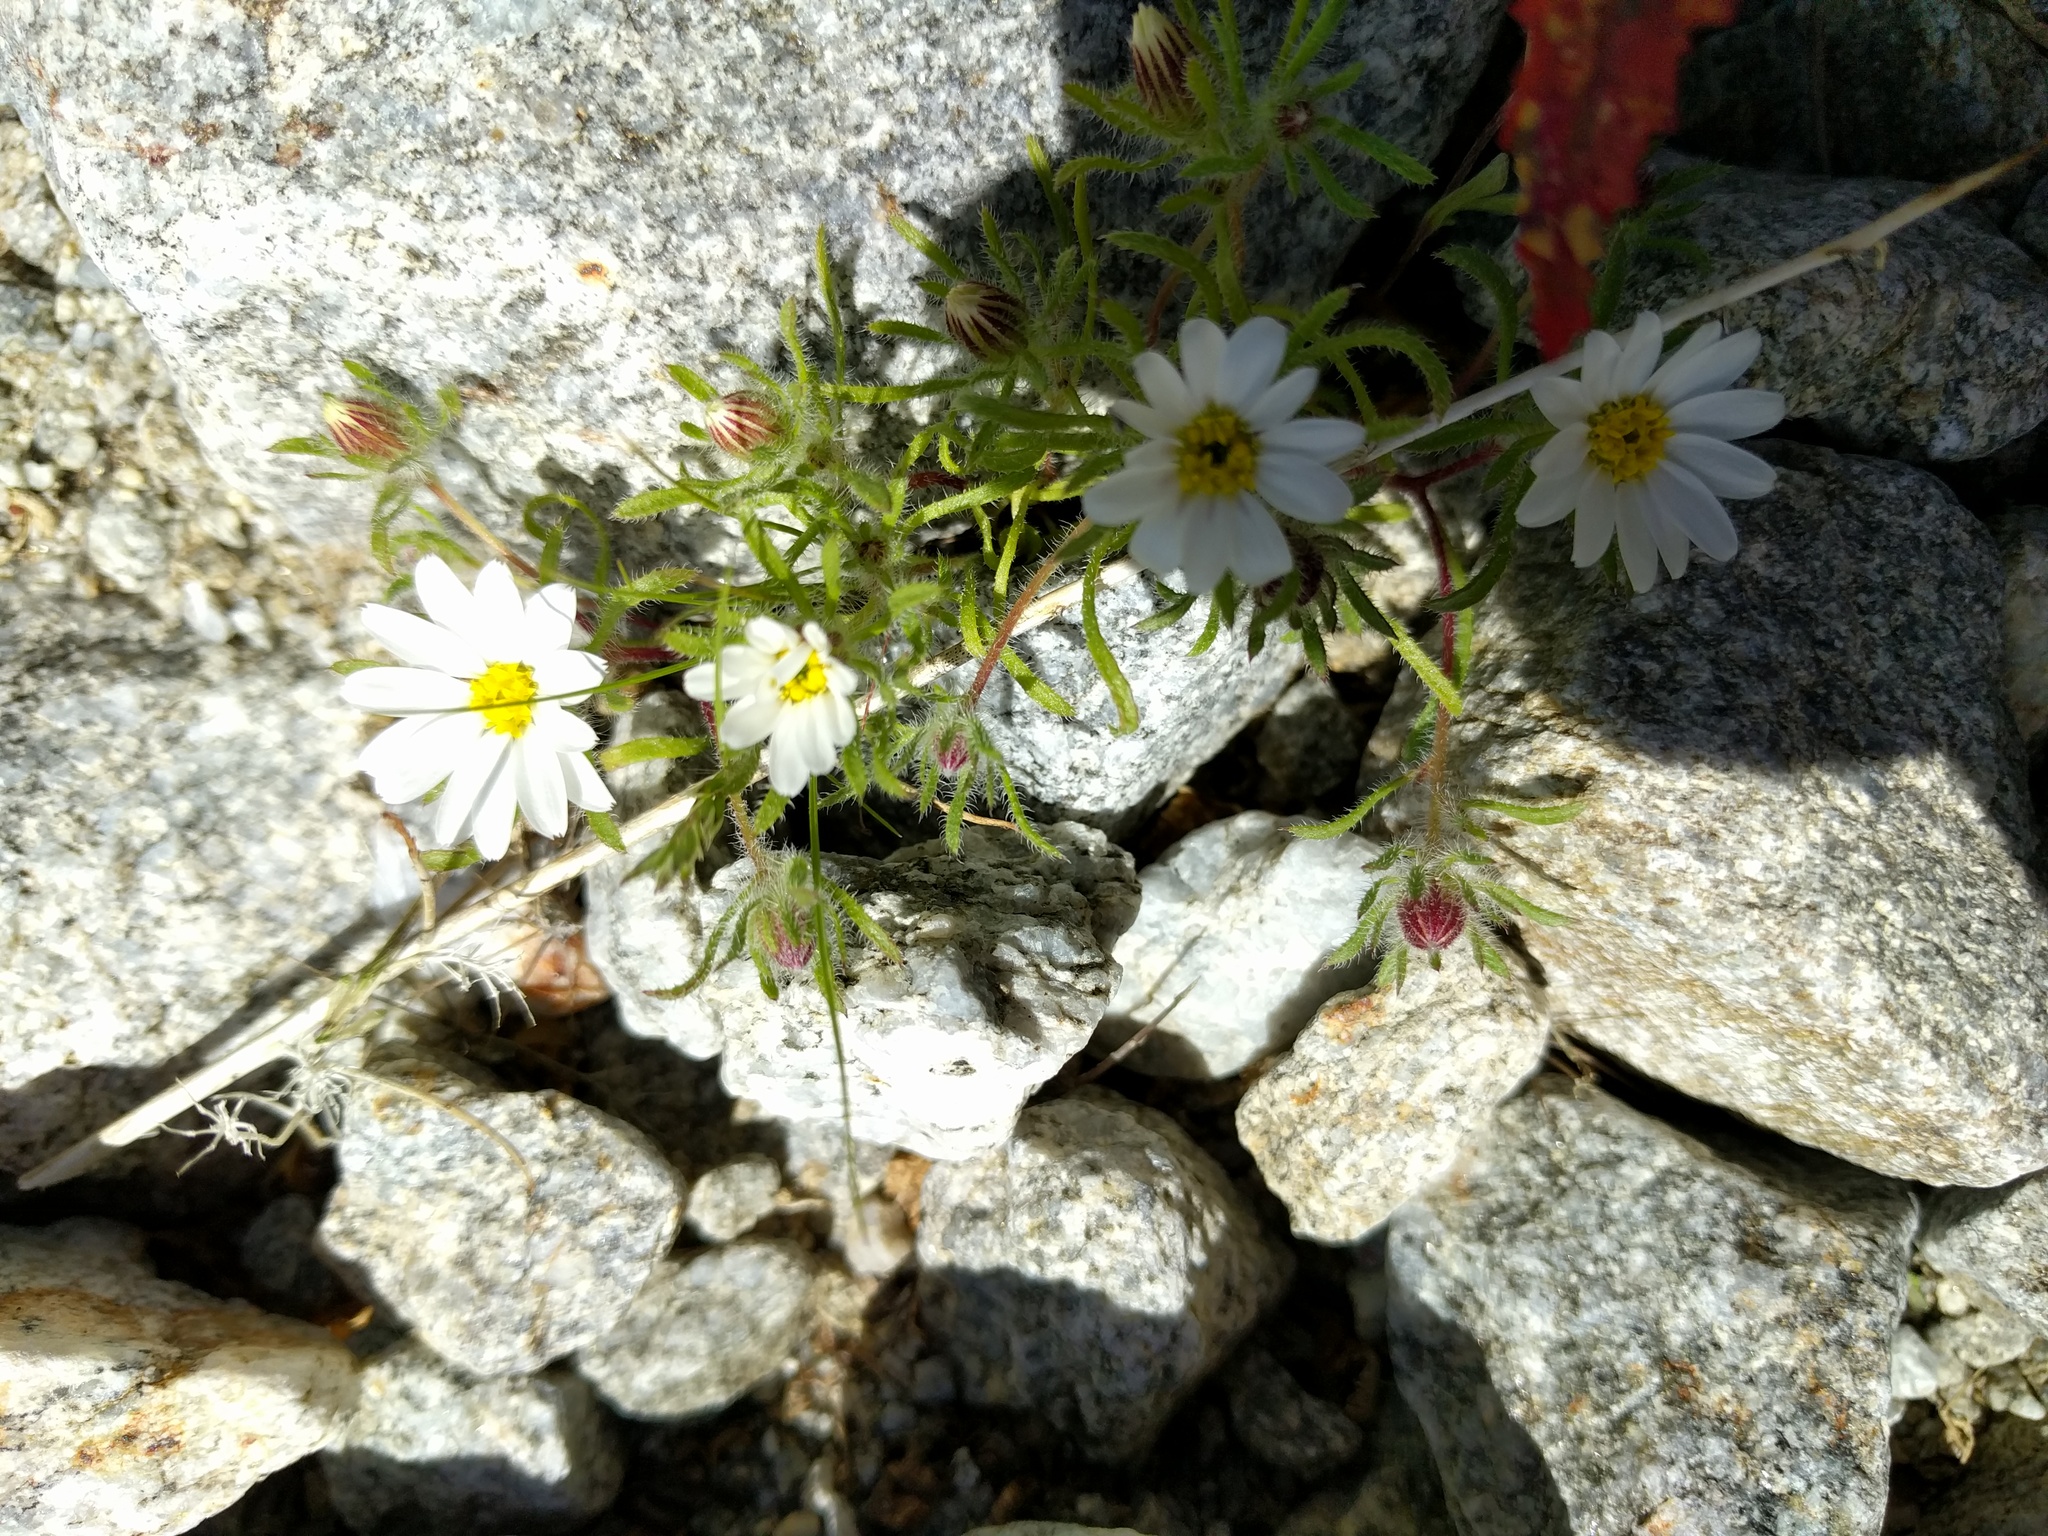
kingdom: Plantae
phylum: Tracheophyta
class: Magnoliopsida
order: Asterales
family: Asteraceae
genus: Monoptilon
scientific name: Monoptilon bellioides
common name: Bristly desertstar
